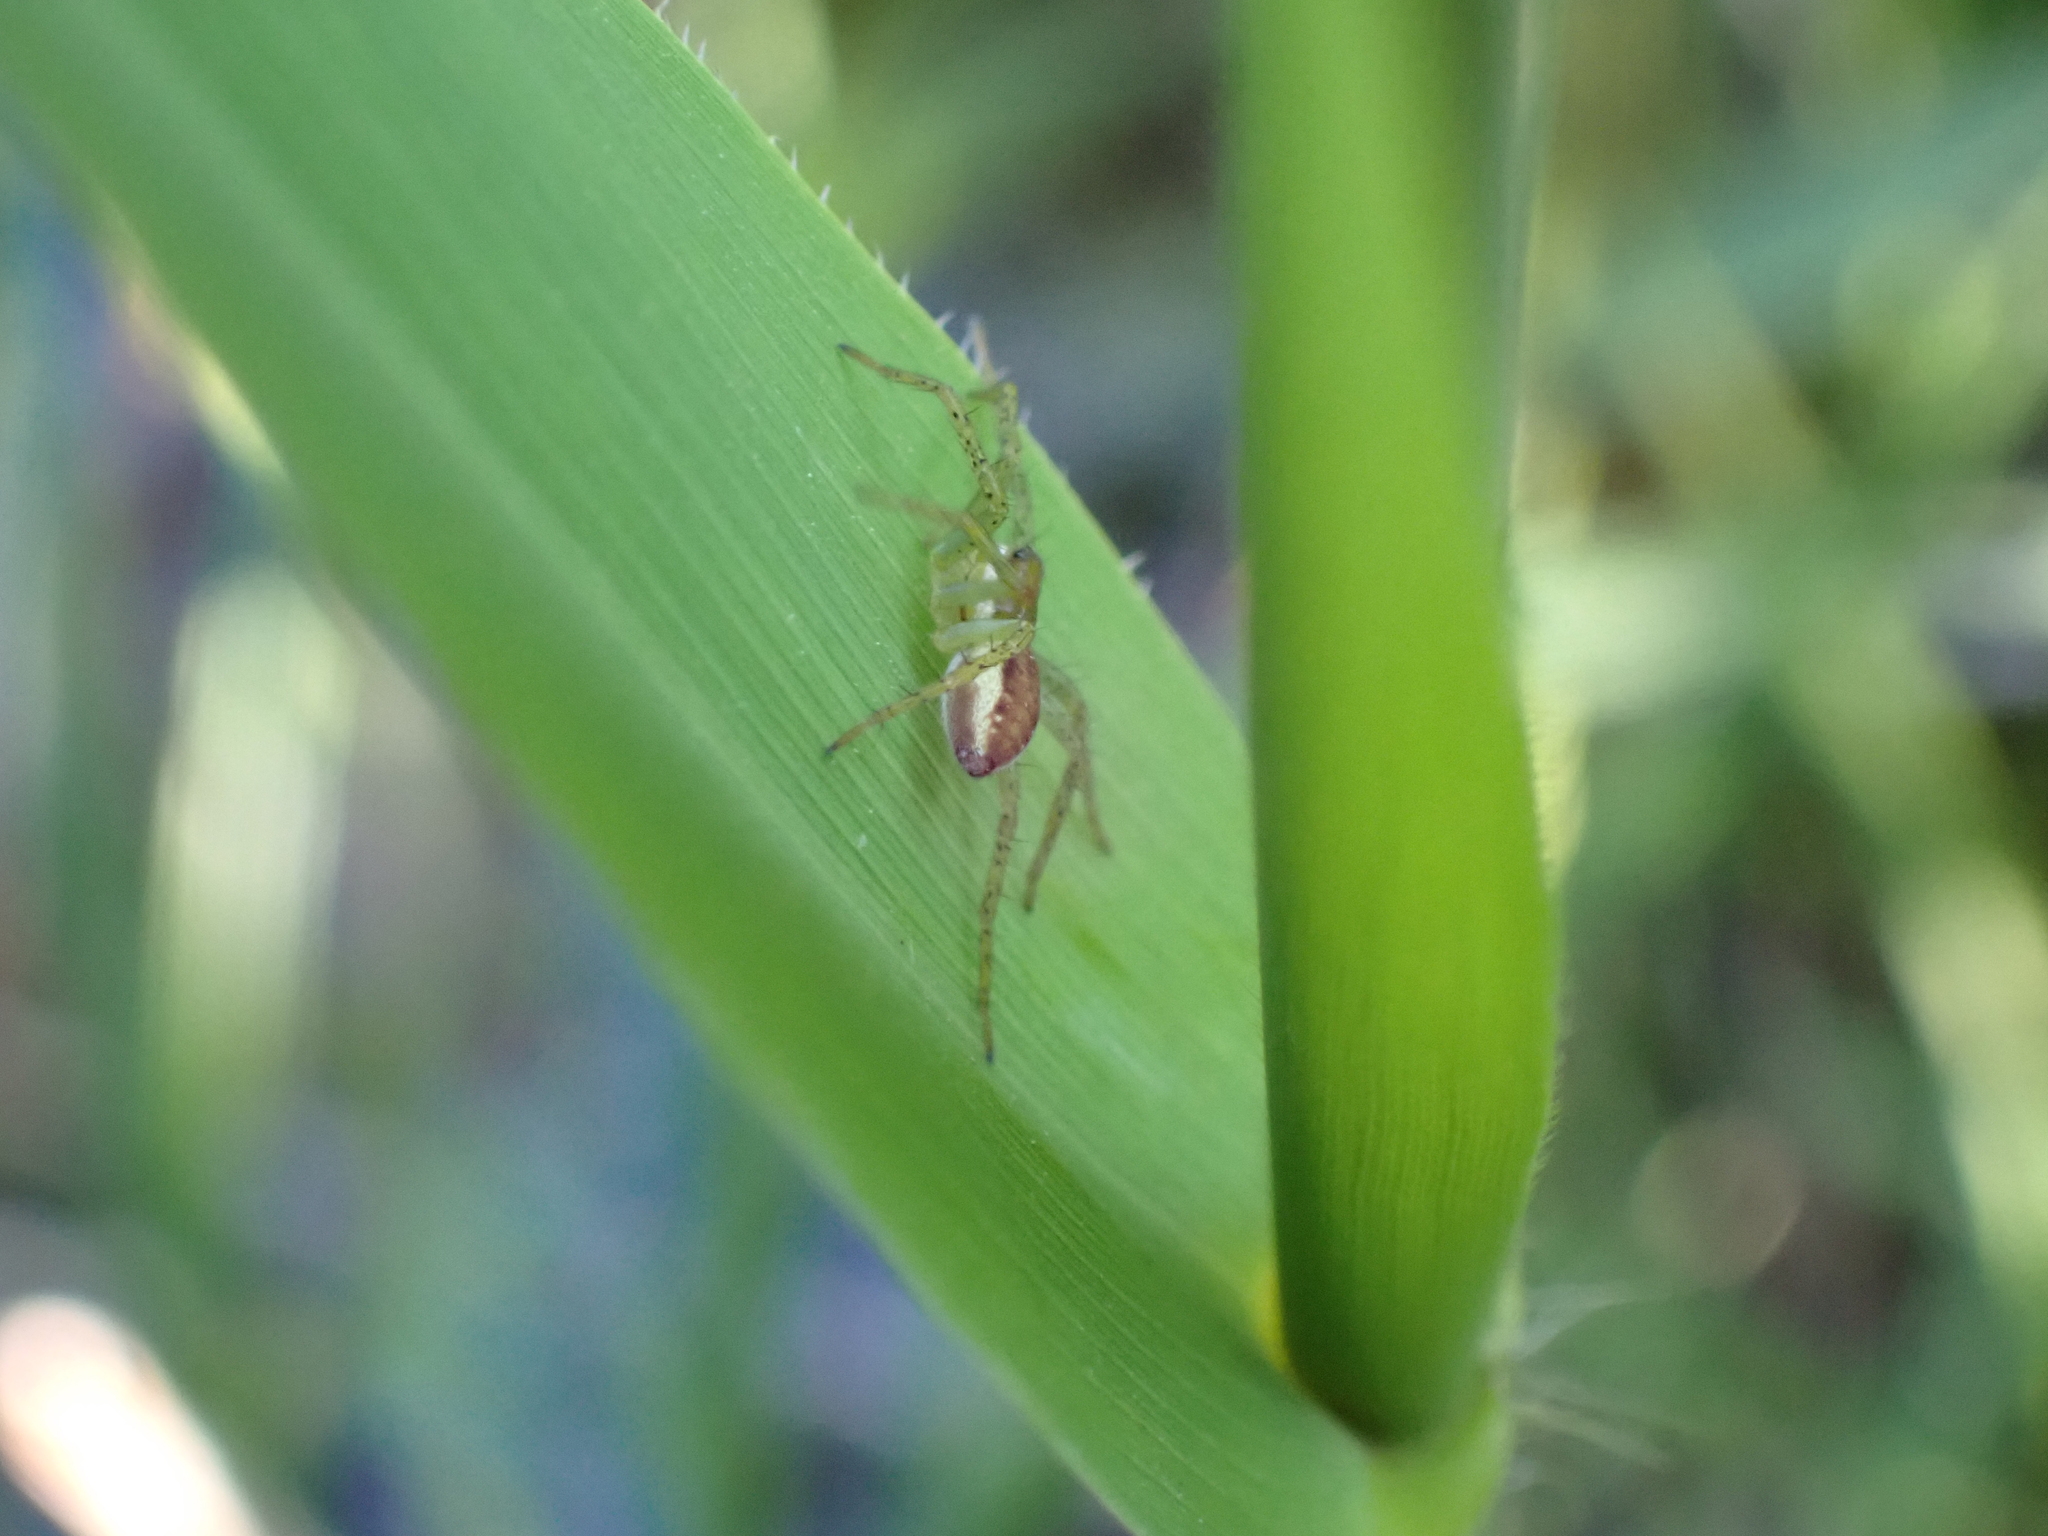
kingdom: Animalia
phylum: Arthropoda
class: Arachnida
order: Araneae
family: Pisauridae
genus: Dolomedes
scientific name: Dolomedes
